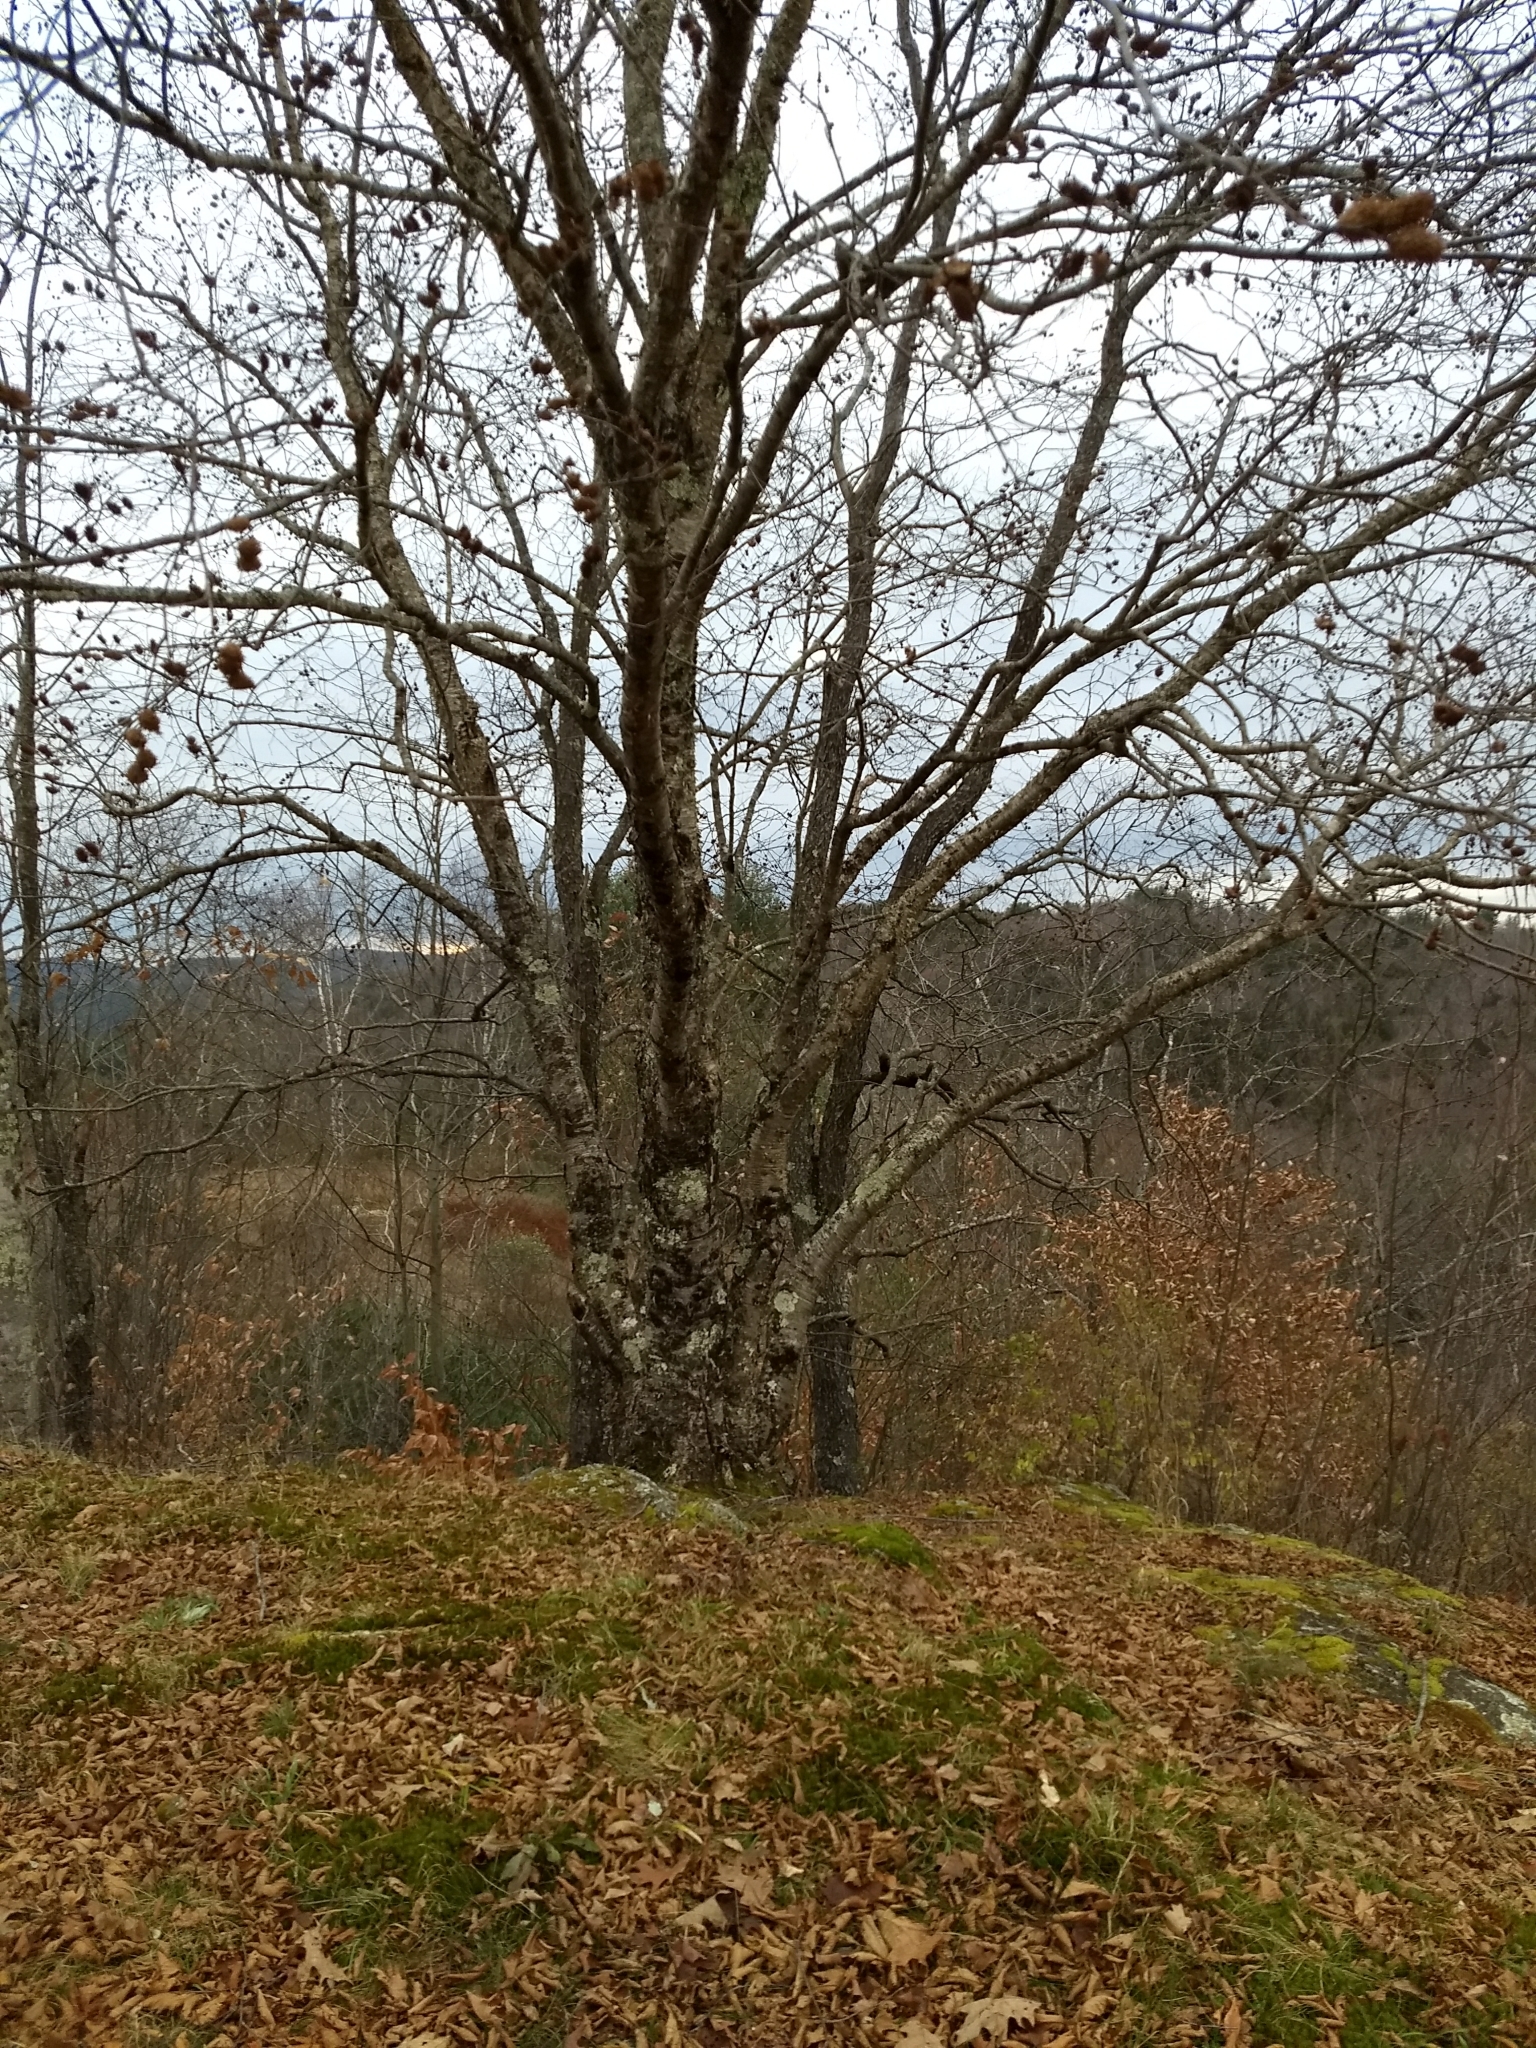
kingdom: Plantae
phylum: Tracheophyta
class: Magnoliopsida
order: Fagales
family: Betulaceae
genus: Betula
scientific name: Betula alleghaniensis
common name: Yellow birch
